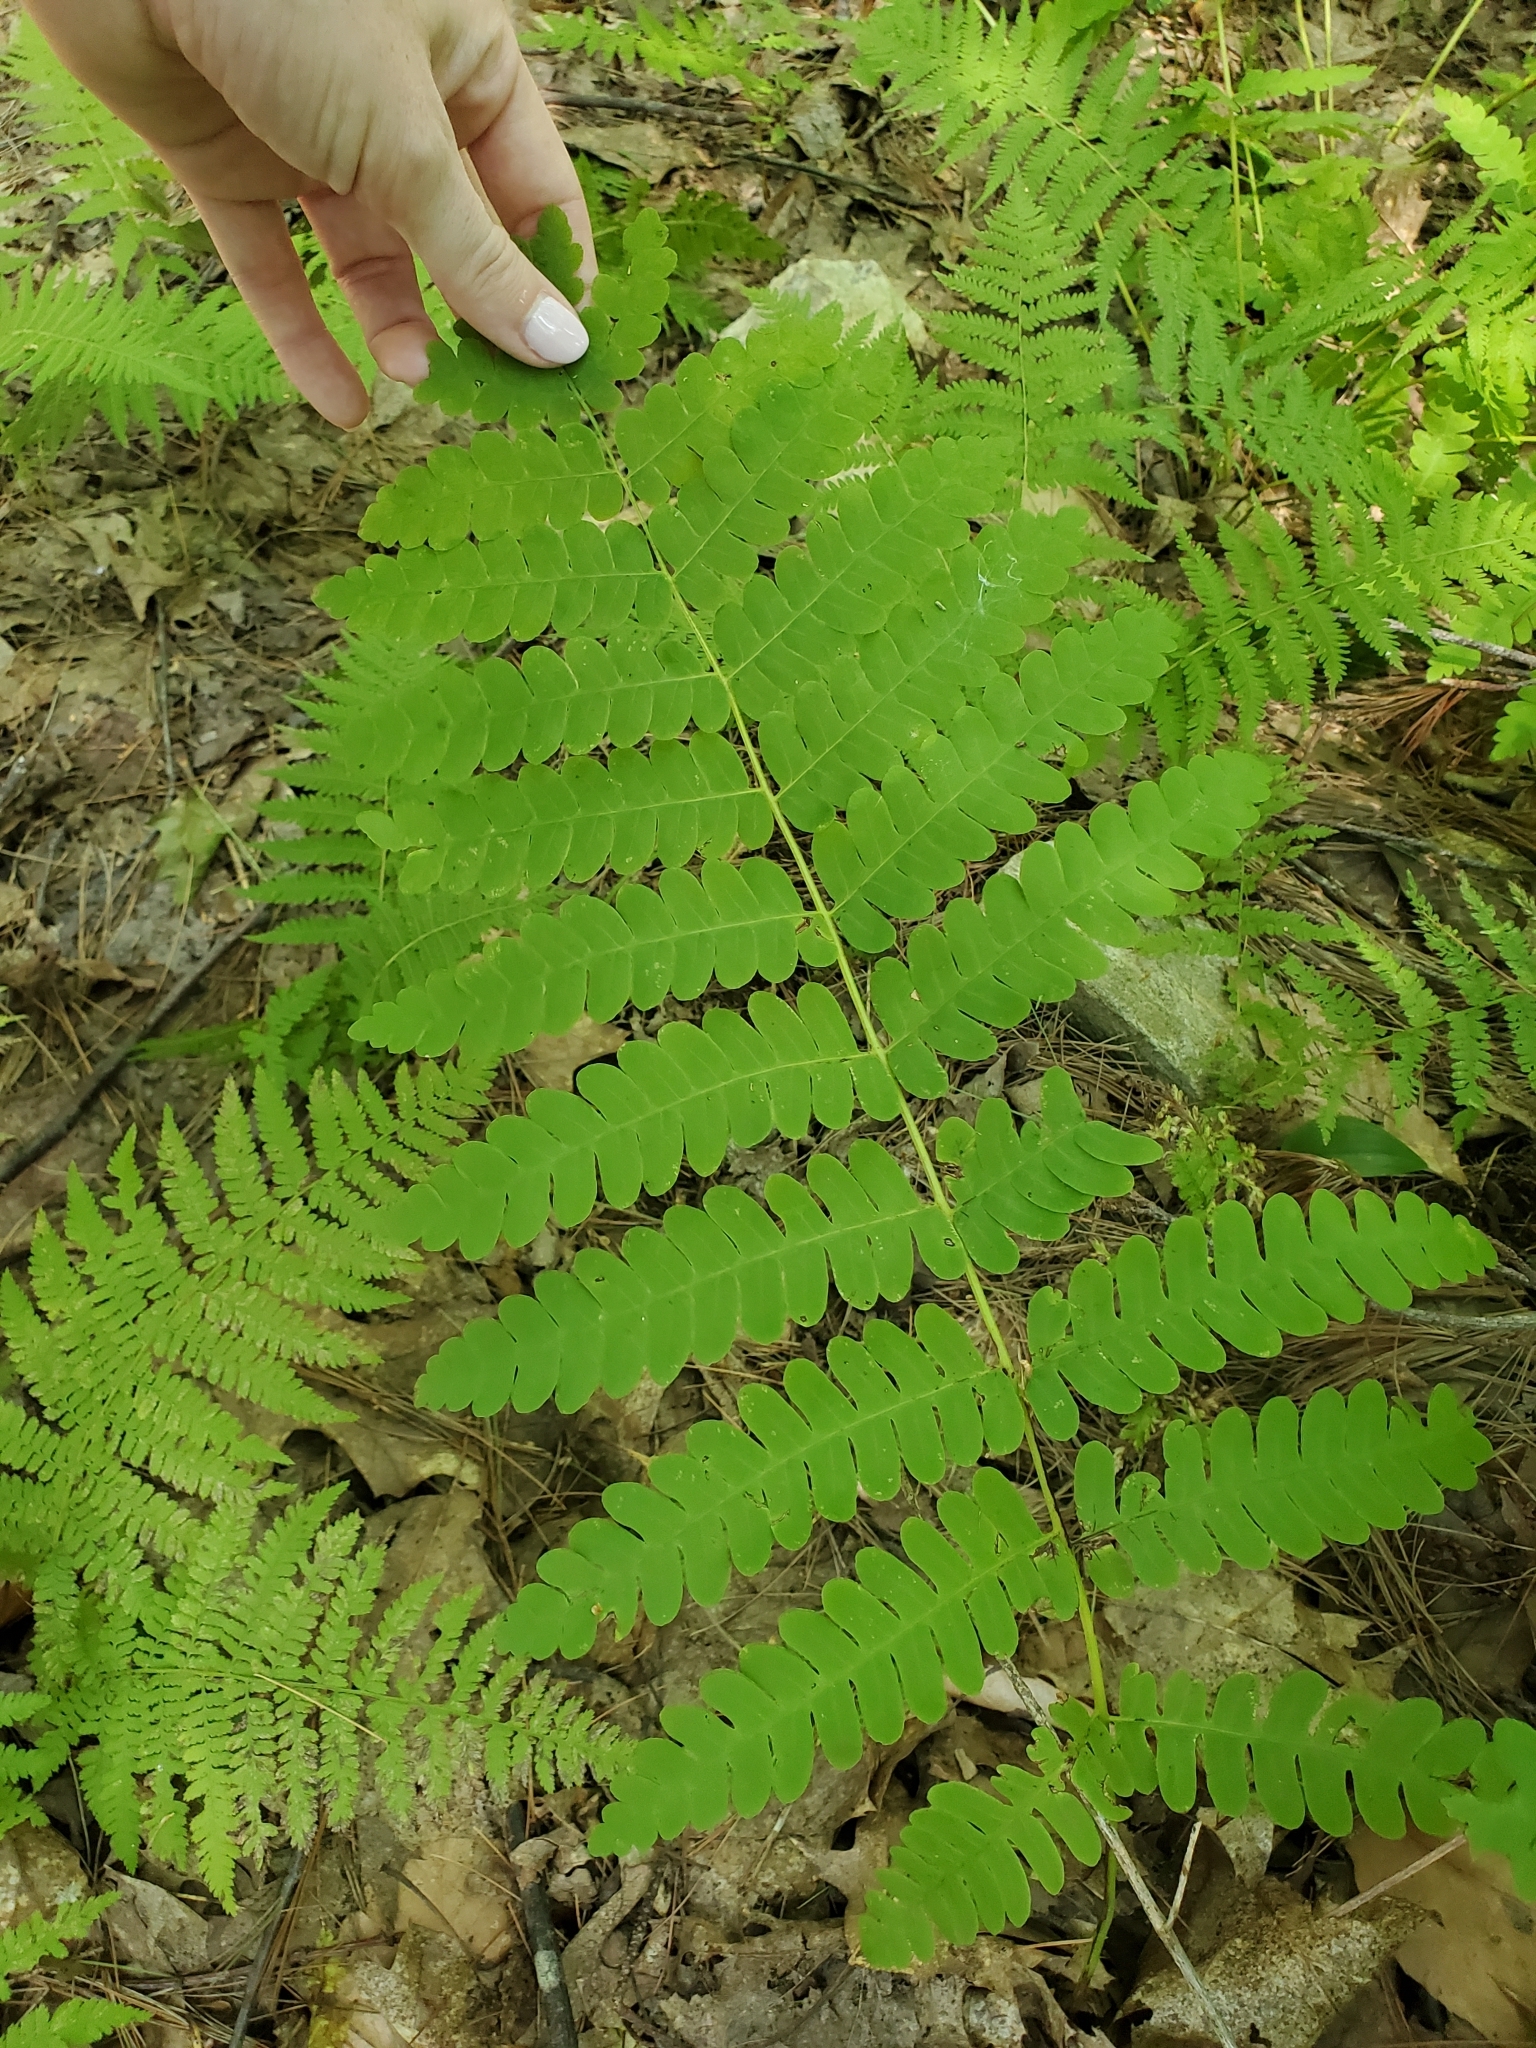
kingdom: Plantae
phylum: Tracheophyta
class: Polypodiopsida
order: Osmundales
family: Osmundaceae
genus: Claytosmunda
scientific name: Claytosmunda claytoniana
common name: Clayton's fern
